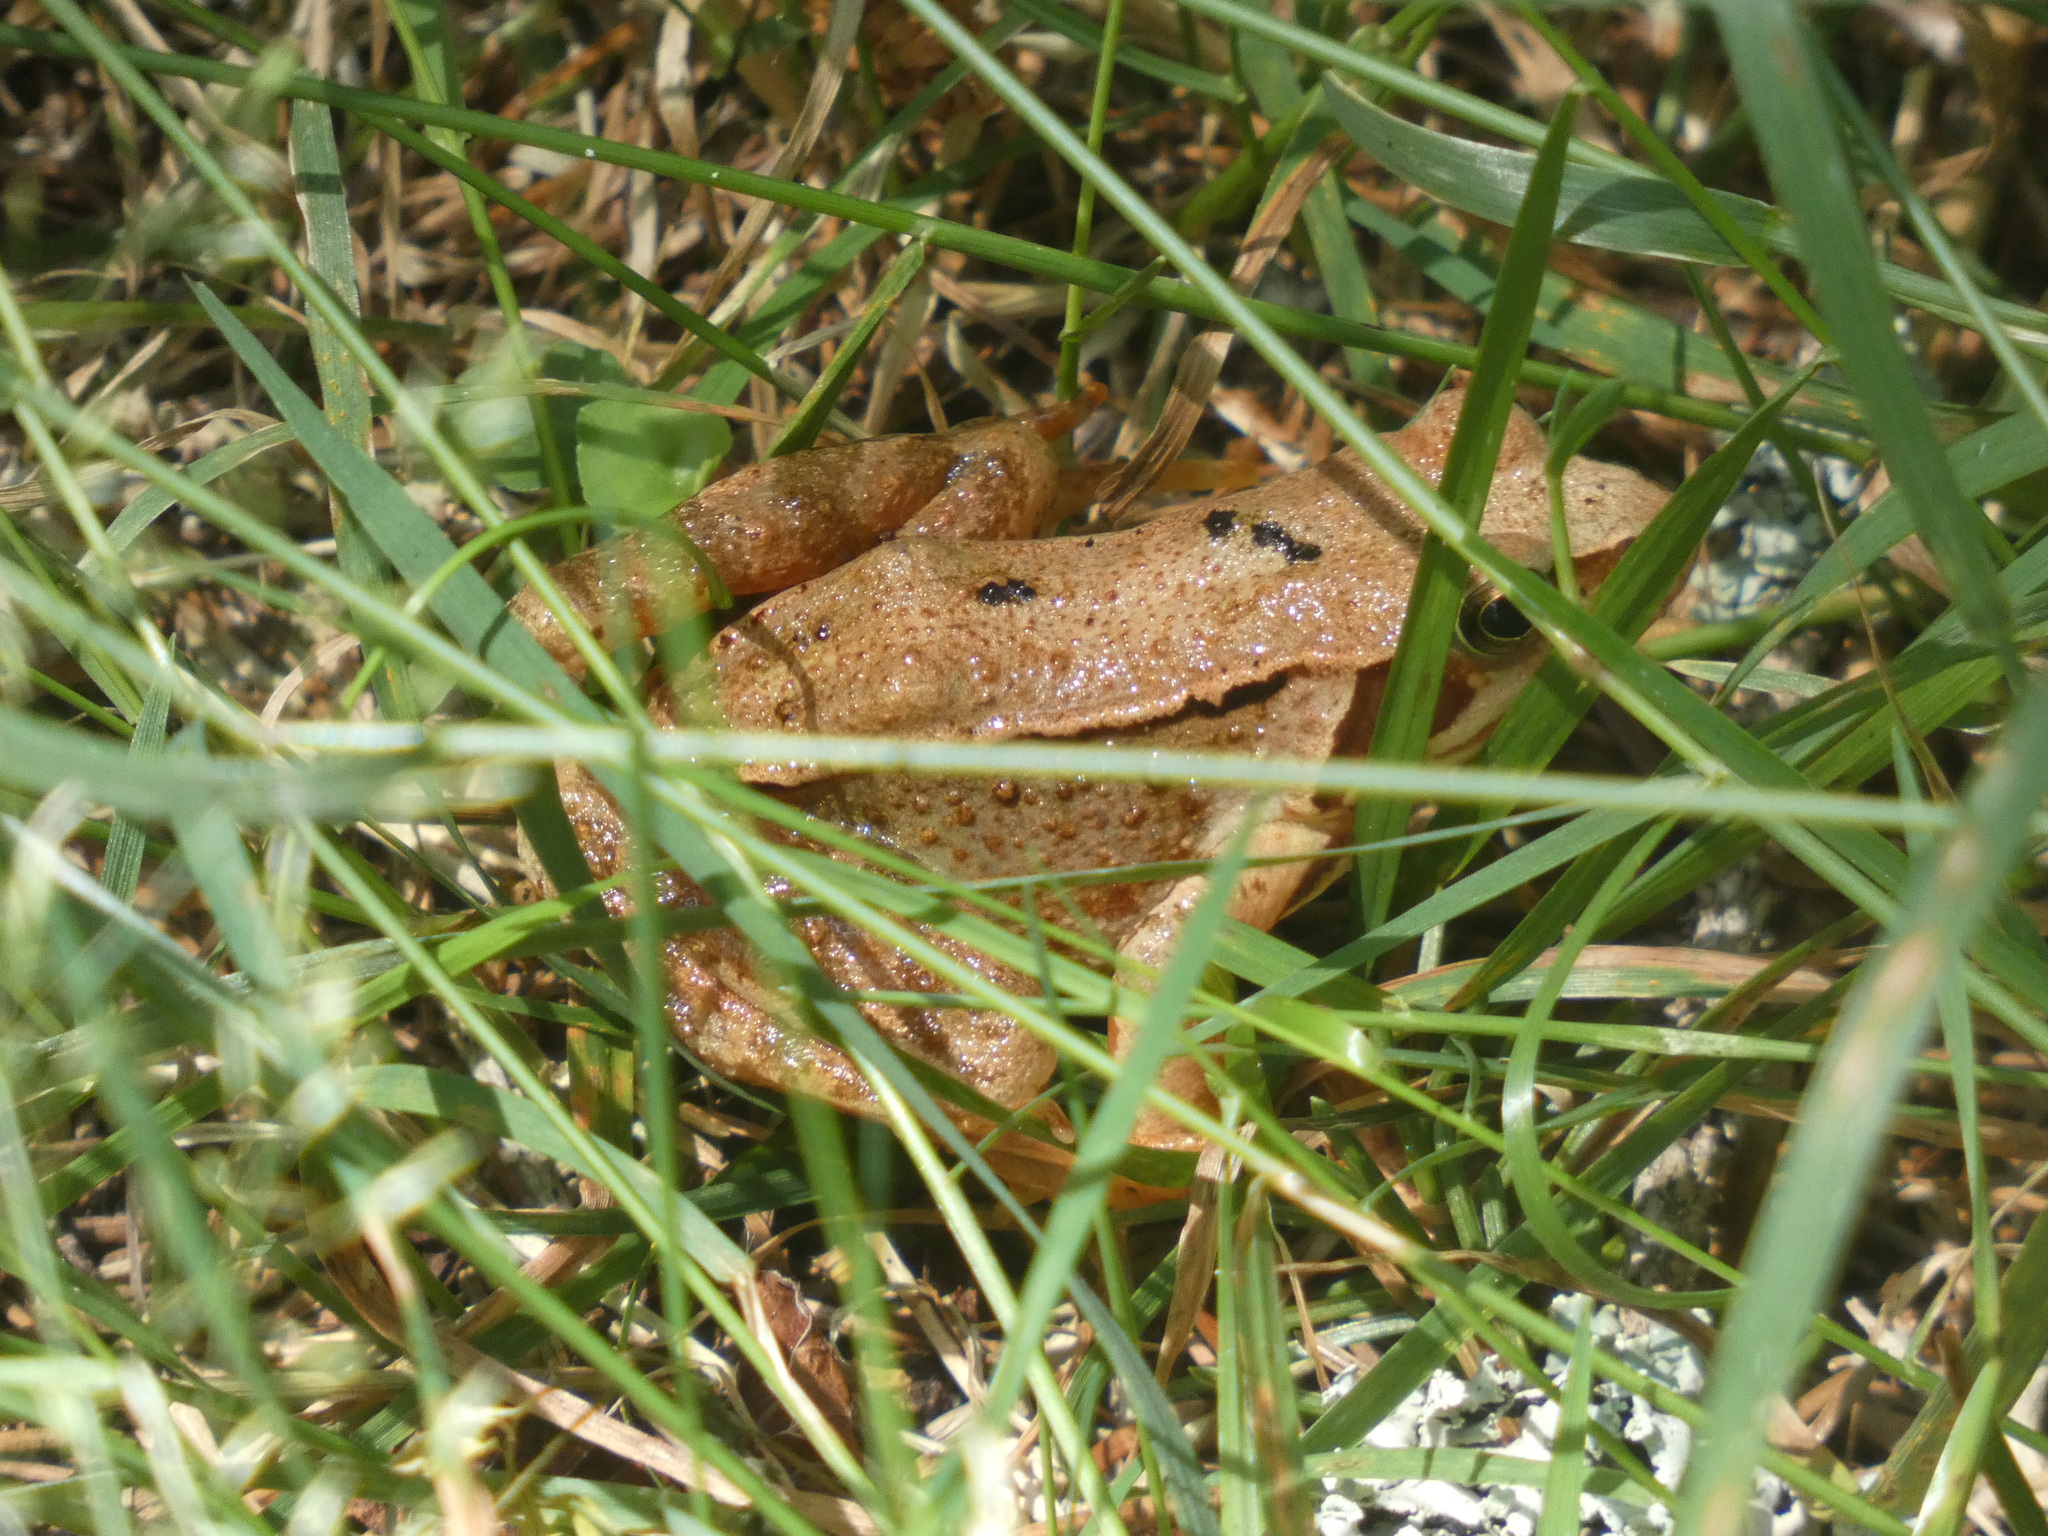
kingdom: Animalia
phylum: Chordata
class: Amphibia
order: Anura
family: Ranidae
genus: Rana
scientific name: Rana temporaria
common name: Common frog
